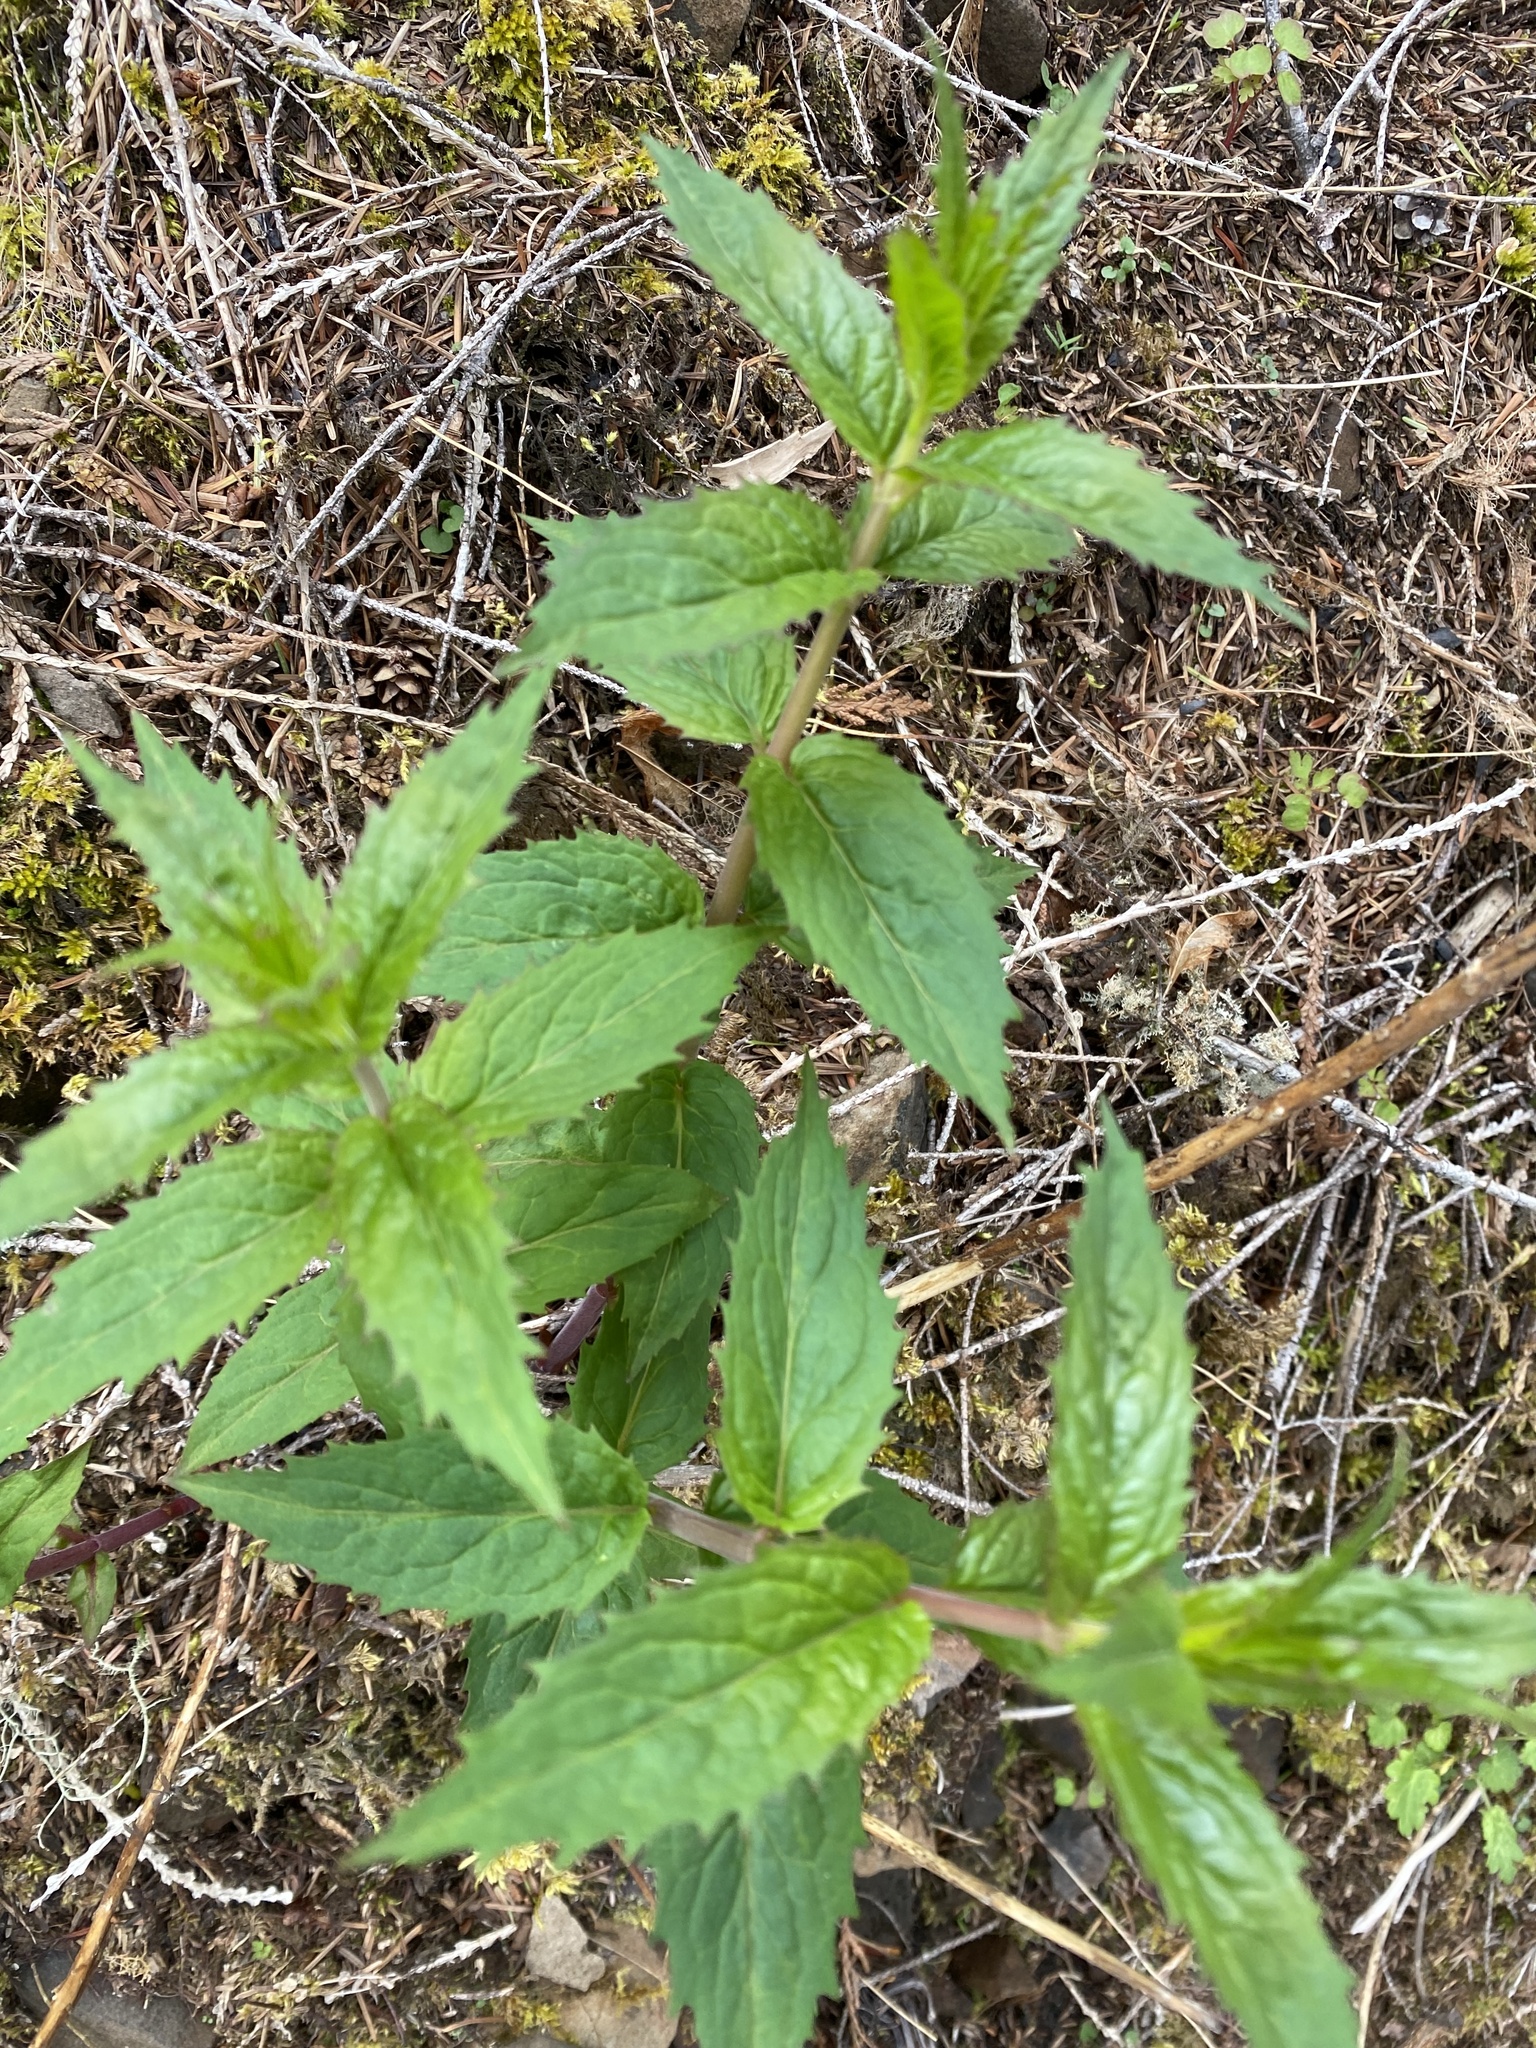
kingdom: Plantae
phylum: Tracheophyta
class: Magnoliopsida
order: Lamiales
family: Plantaginaceae
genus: Nothochelone
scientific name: Nothochelone nemorosa
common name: Woodland beardtongue
